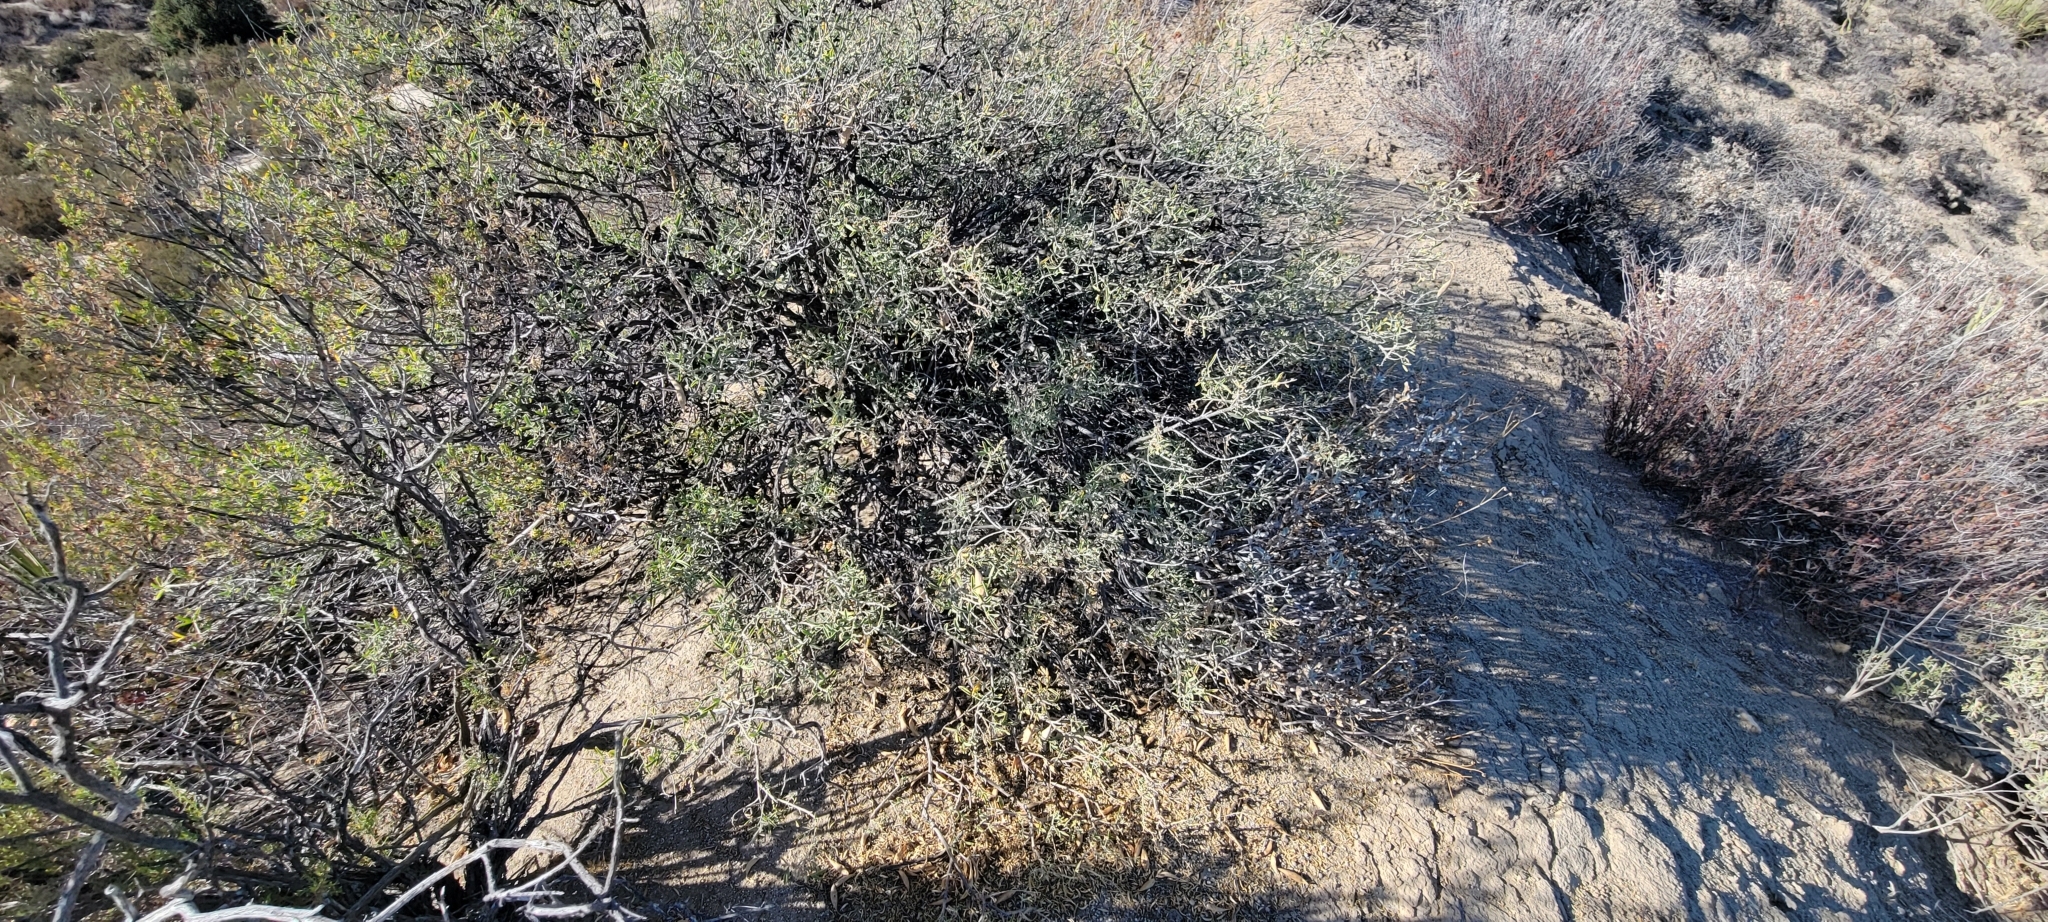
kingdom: Plantae
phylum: Tracheophyta
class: Magnoliopsida
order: Brassicales
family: Cleomaceae
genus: Cleomella
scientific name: Cleomella arborea
